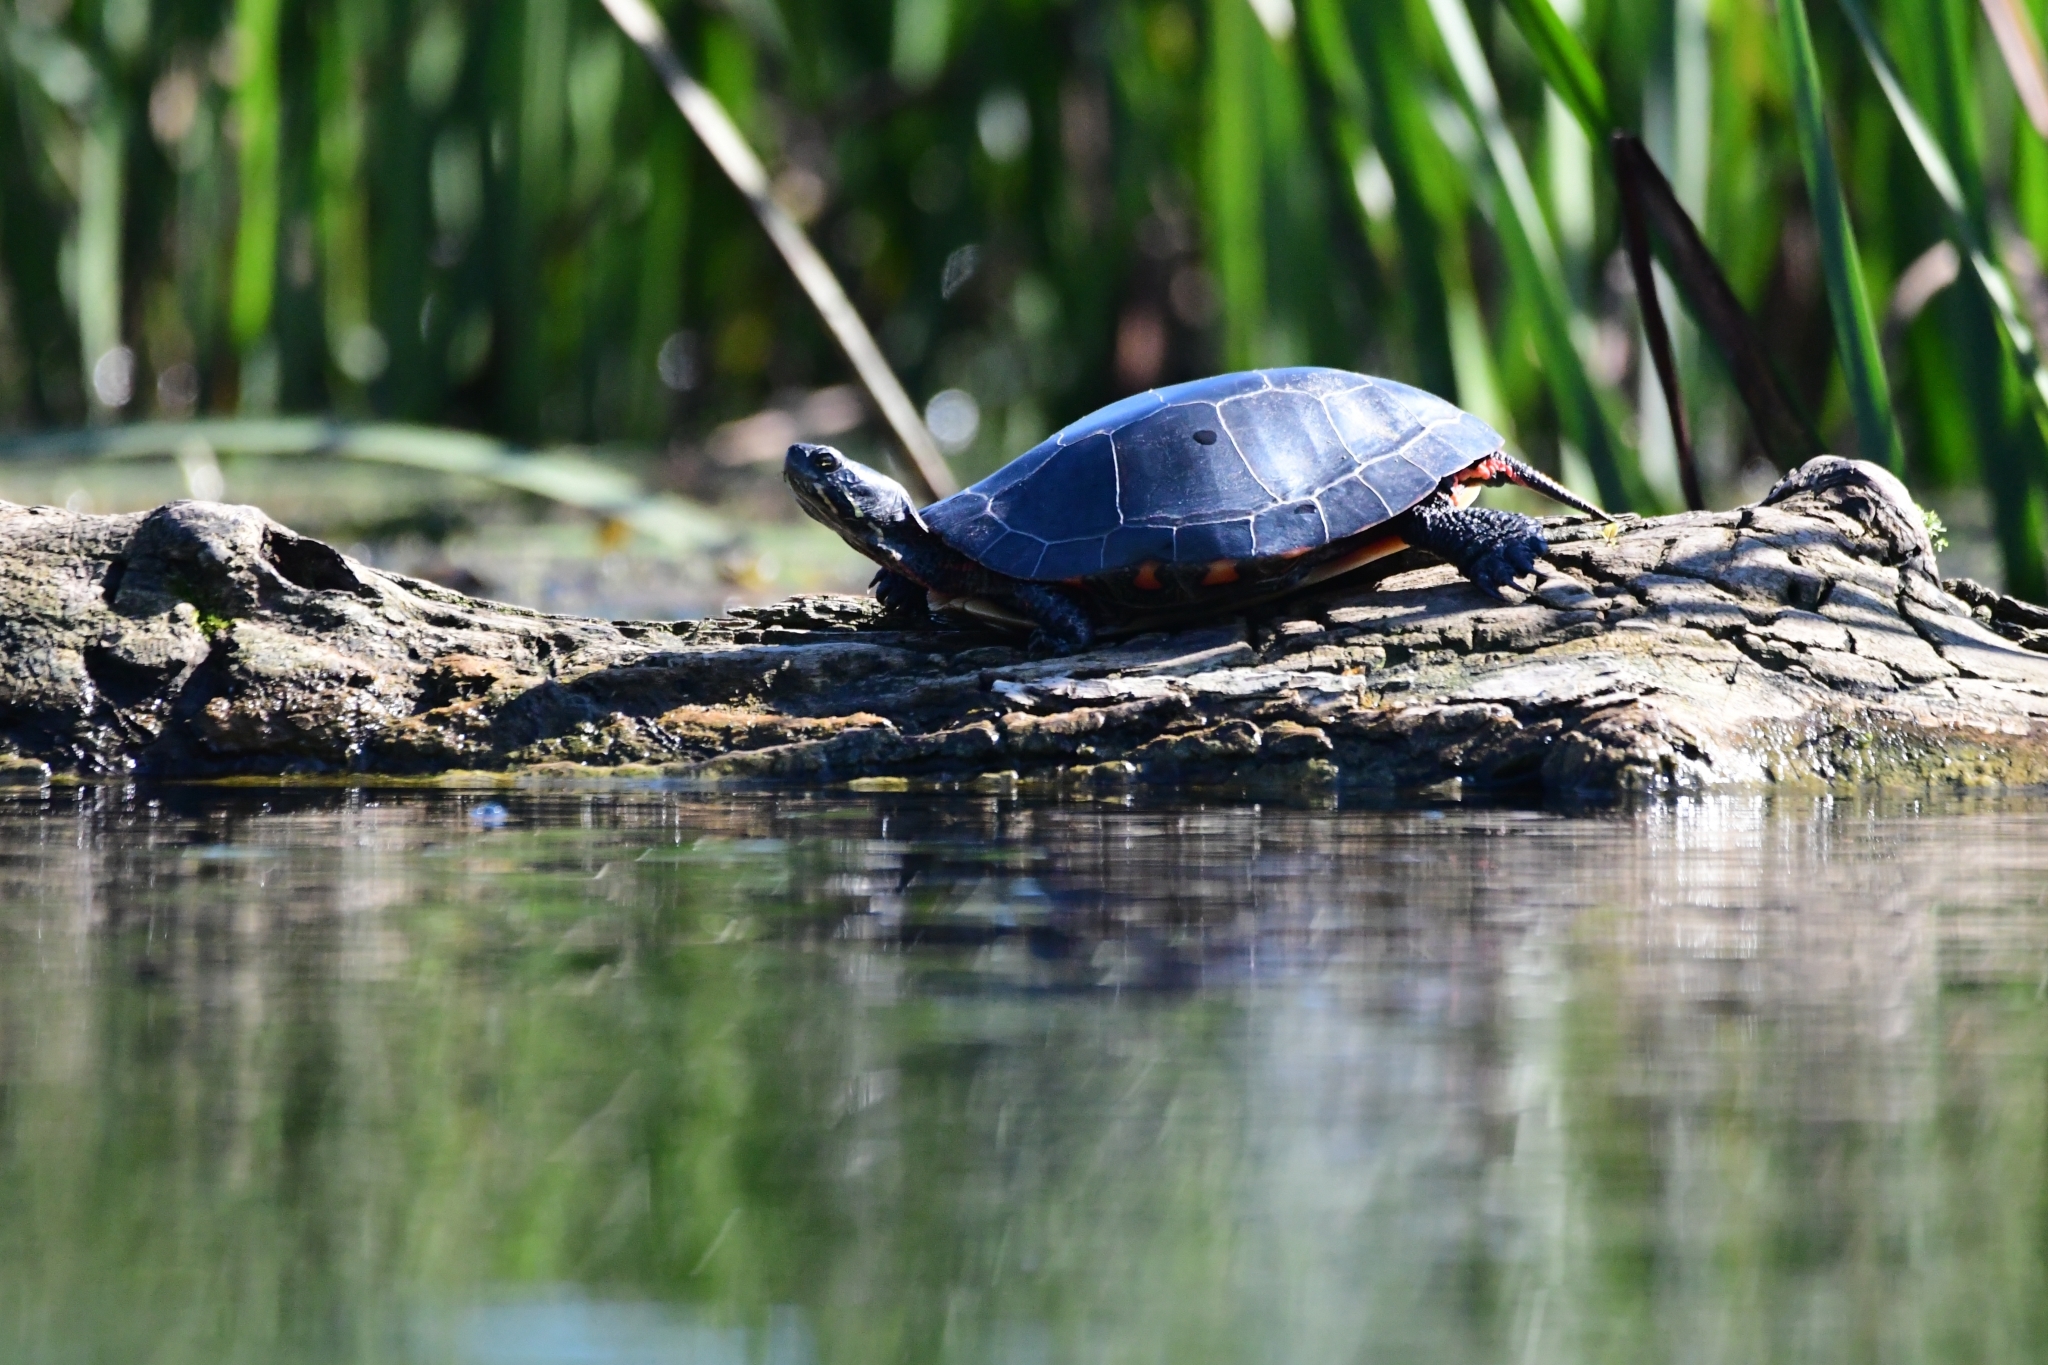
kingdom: Animalia
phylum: Chordata
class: Testudines
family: Emydidae
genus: Chrysemys
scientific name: Chrysemys picta
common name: Painted turtle
